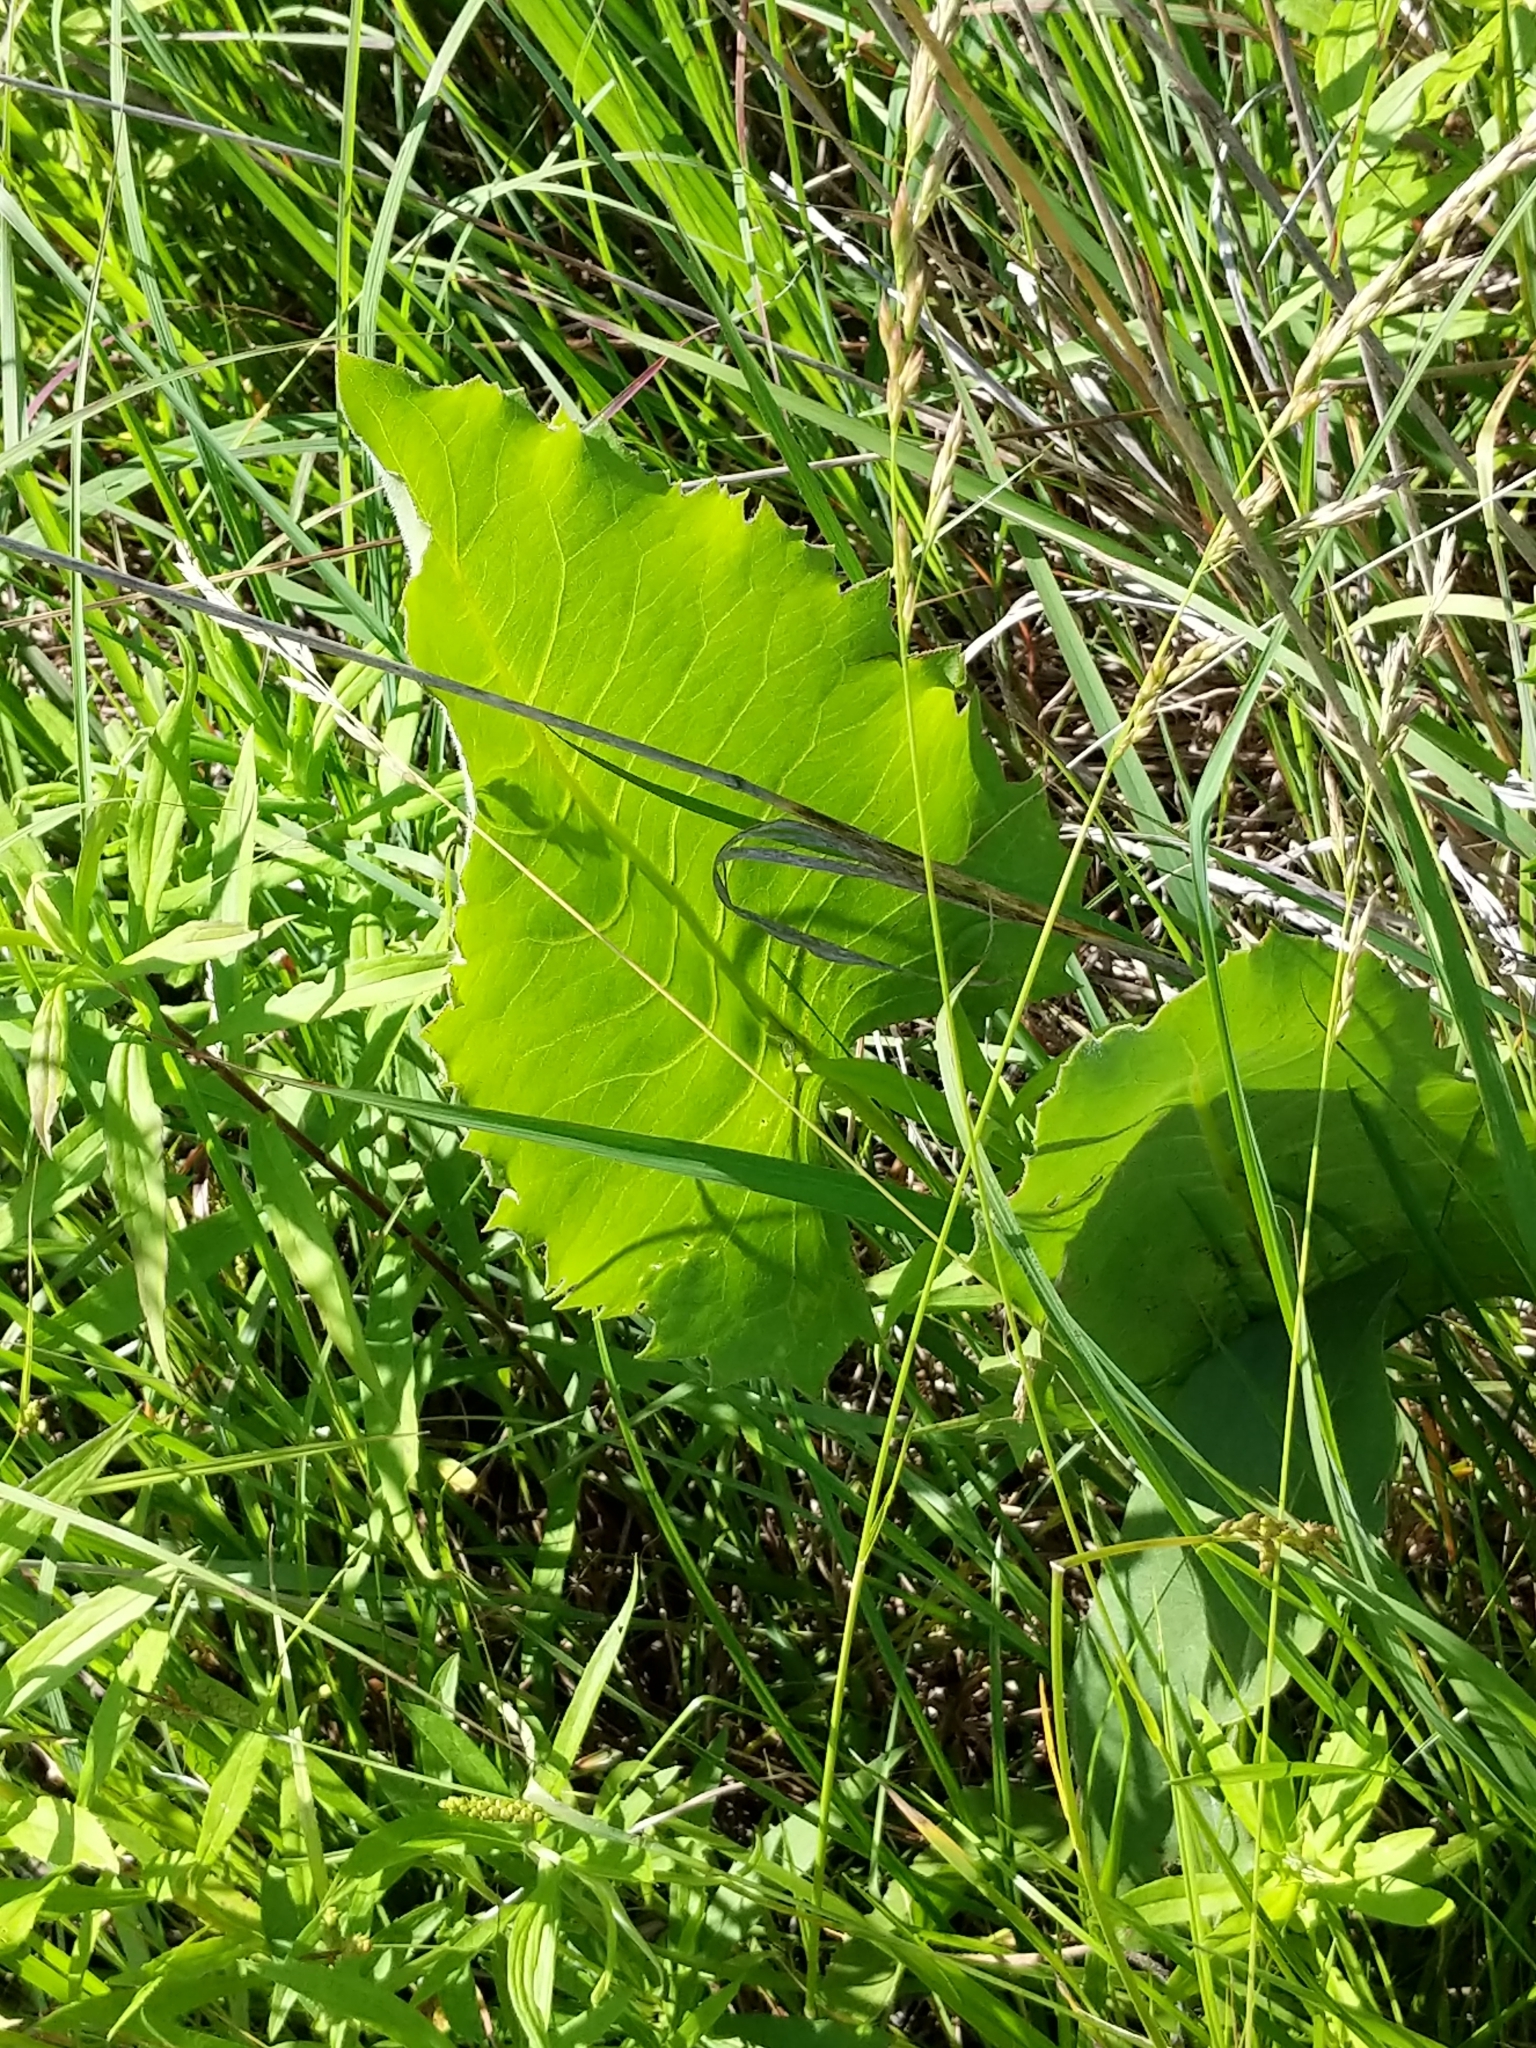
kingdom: Plantae
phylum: Tracheophyta
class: Magnoliopsida
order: Asterales
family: Asteraceae
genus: Silphium
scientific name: Silphium terebinthinaceum
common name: Basal-leaf rosinweed
